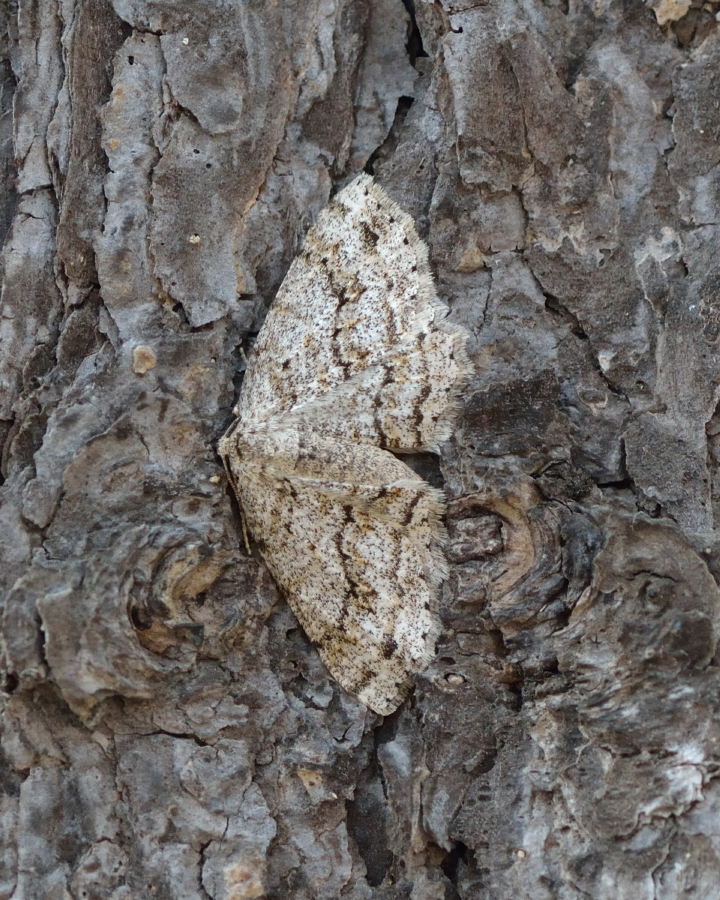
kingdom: Animalia
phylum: Arthropoda
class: Insecta
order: Lepidoptera
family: Geometridae
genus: Ectropis
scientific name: Ectropis crepuscularia
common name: Engrailed
